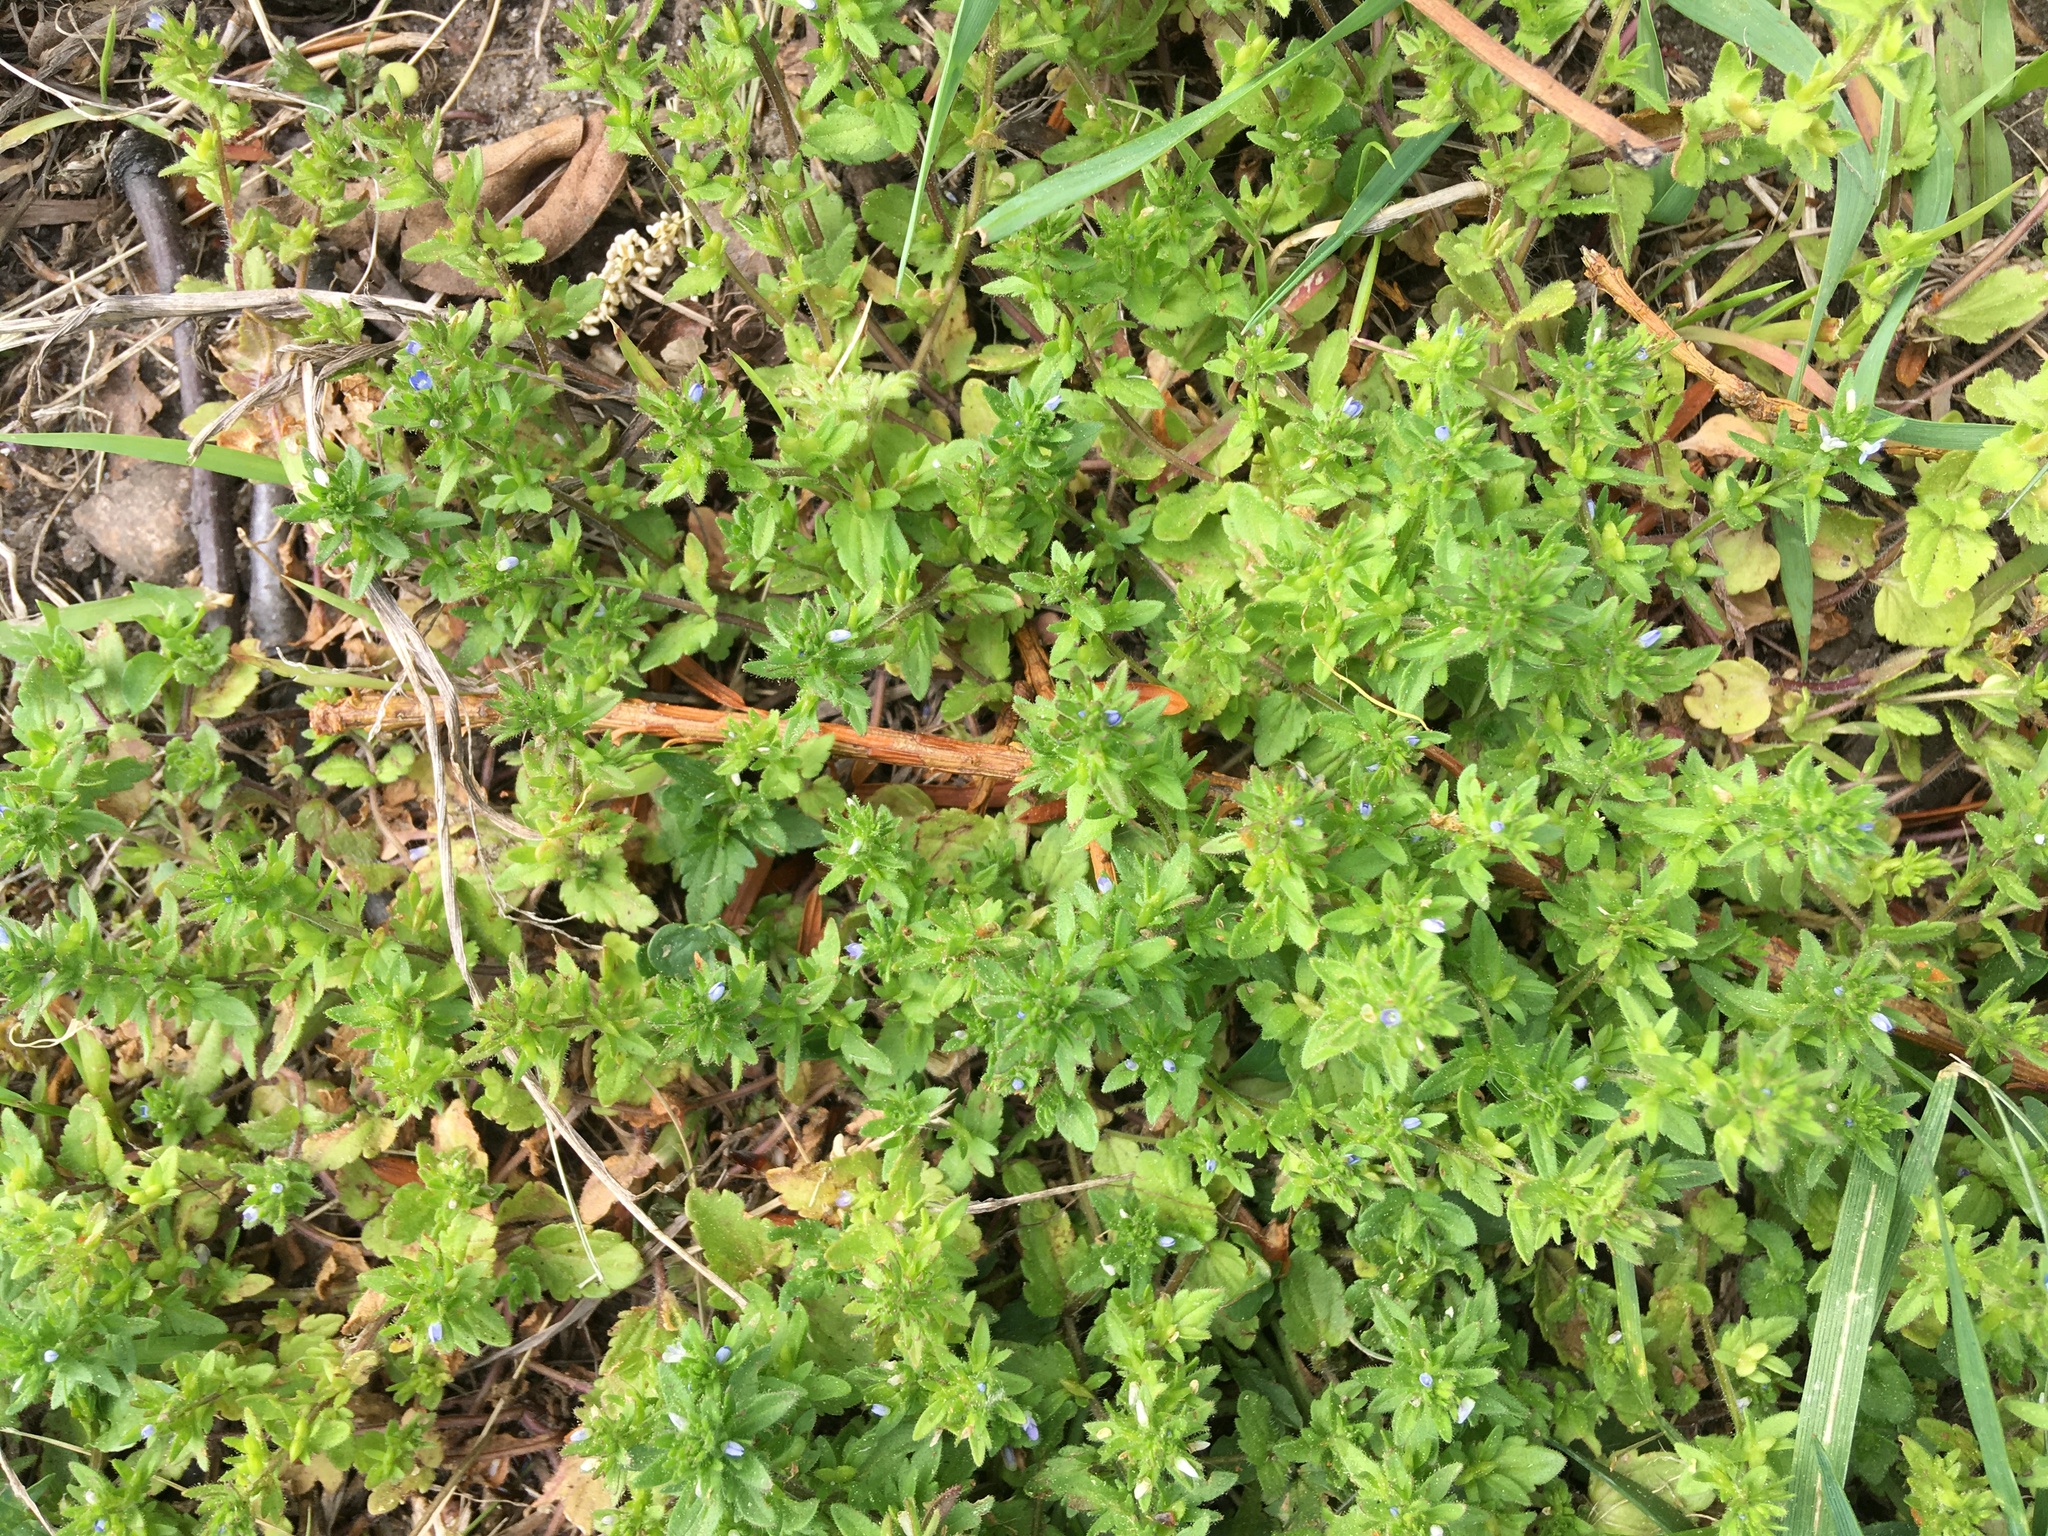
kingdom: Plantae
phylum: Tracheophyta
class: Magnoliopsida
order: Lamiales
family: Plantaginaceae
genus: Veronica
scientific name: Veronica arvensis
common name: Corn speedwell
